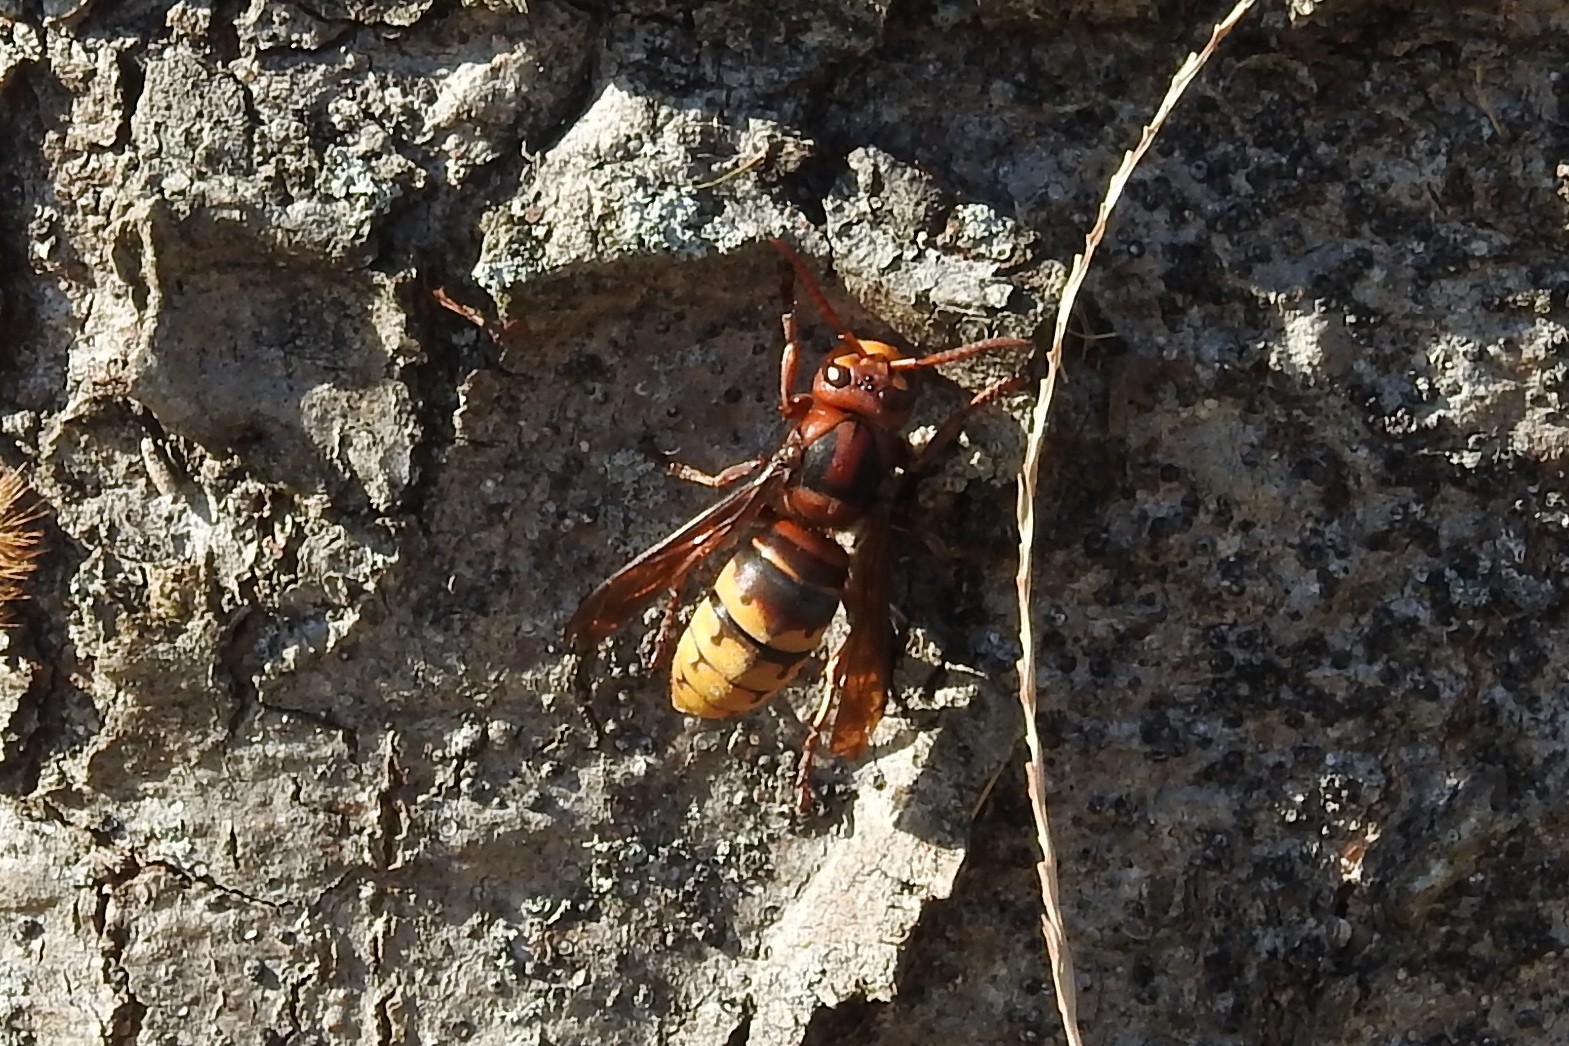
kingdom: Animalia
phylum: Arthropoda
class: Insecta
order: Hymenoptera
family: Vespidae
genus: Vespa
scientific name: Vespa crabro
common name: Hornet
